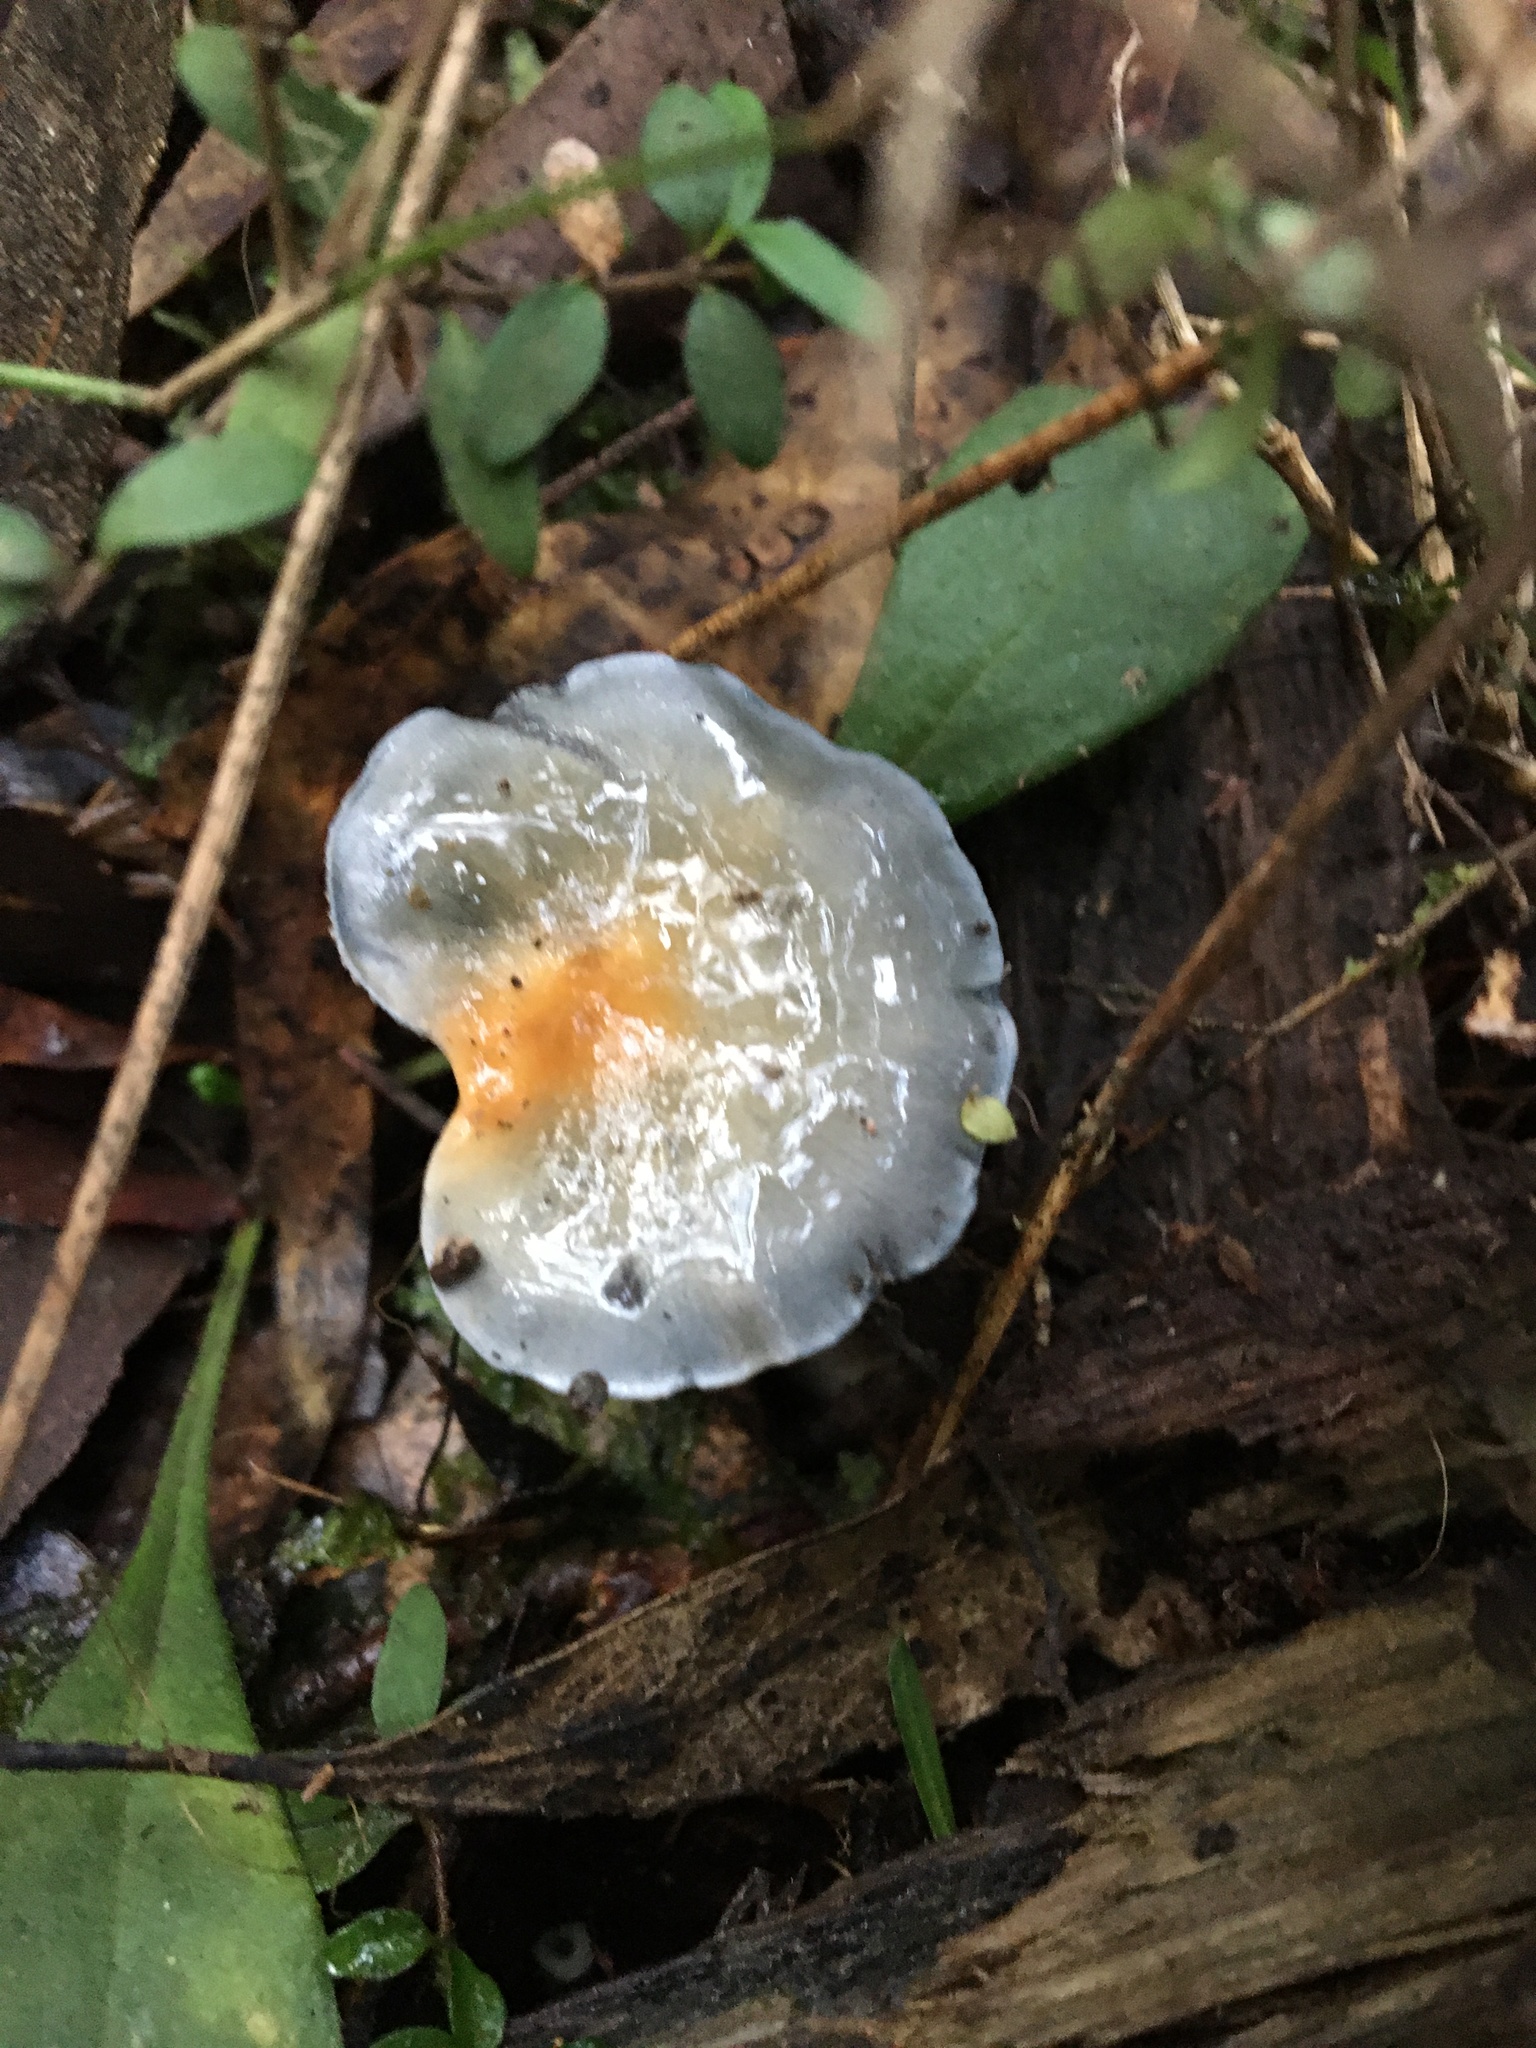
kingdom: Fungi
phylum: Basidiomycota
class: Agaricomycetes
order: Agaricales
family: Cortinariaceae
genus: Cortinarius
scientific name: Cortinarius rotundisporus
